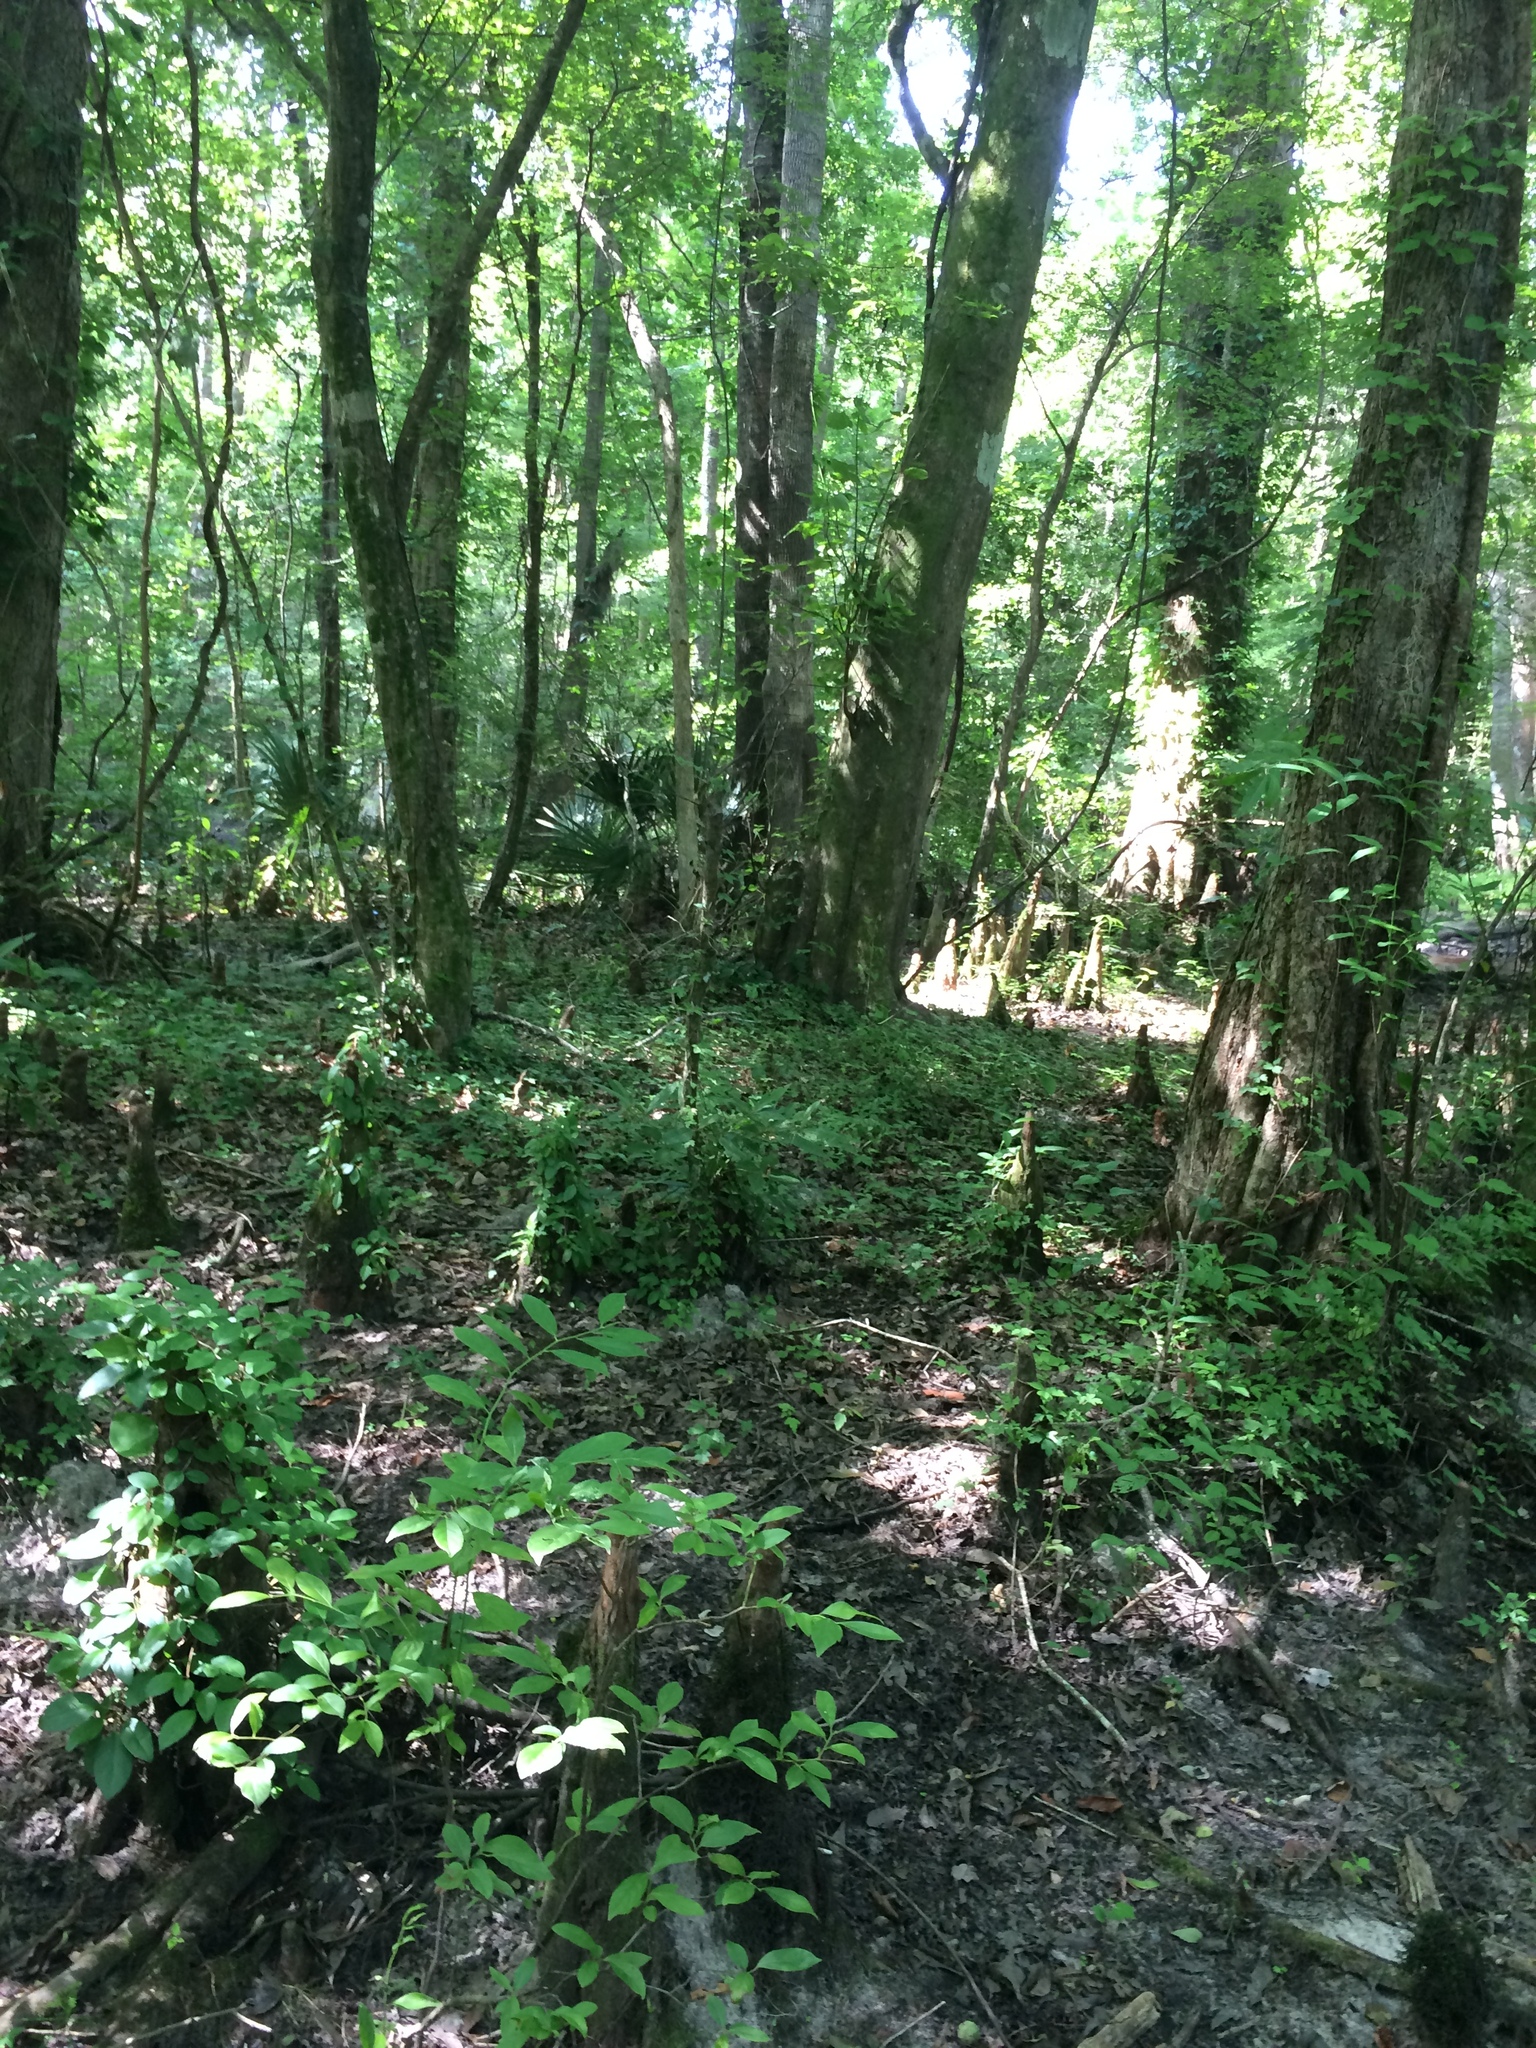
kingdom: Plantae
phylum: Tracheophyta
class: Liliopsida
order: Poales
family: Cyperaceae
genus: Carex
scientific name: Carex comosa
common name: Bristly sedge
